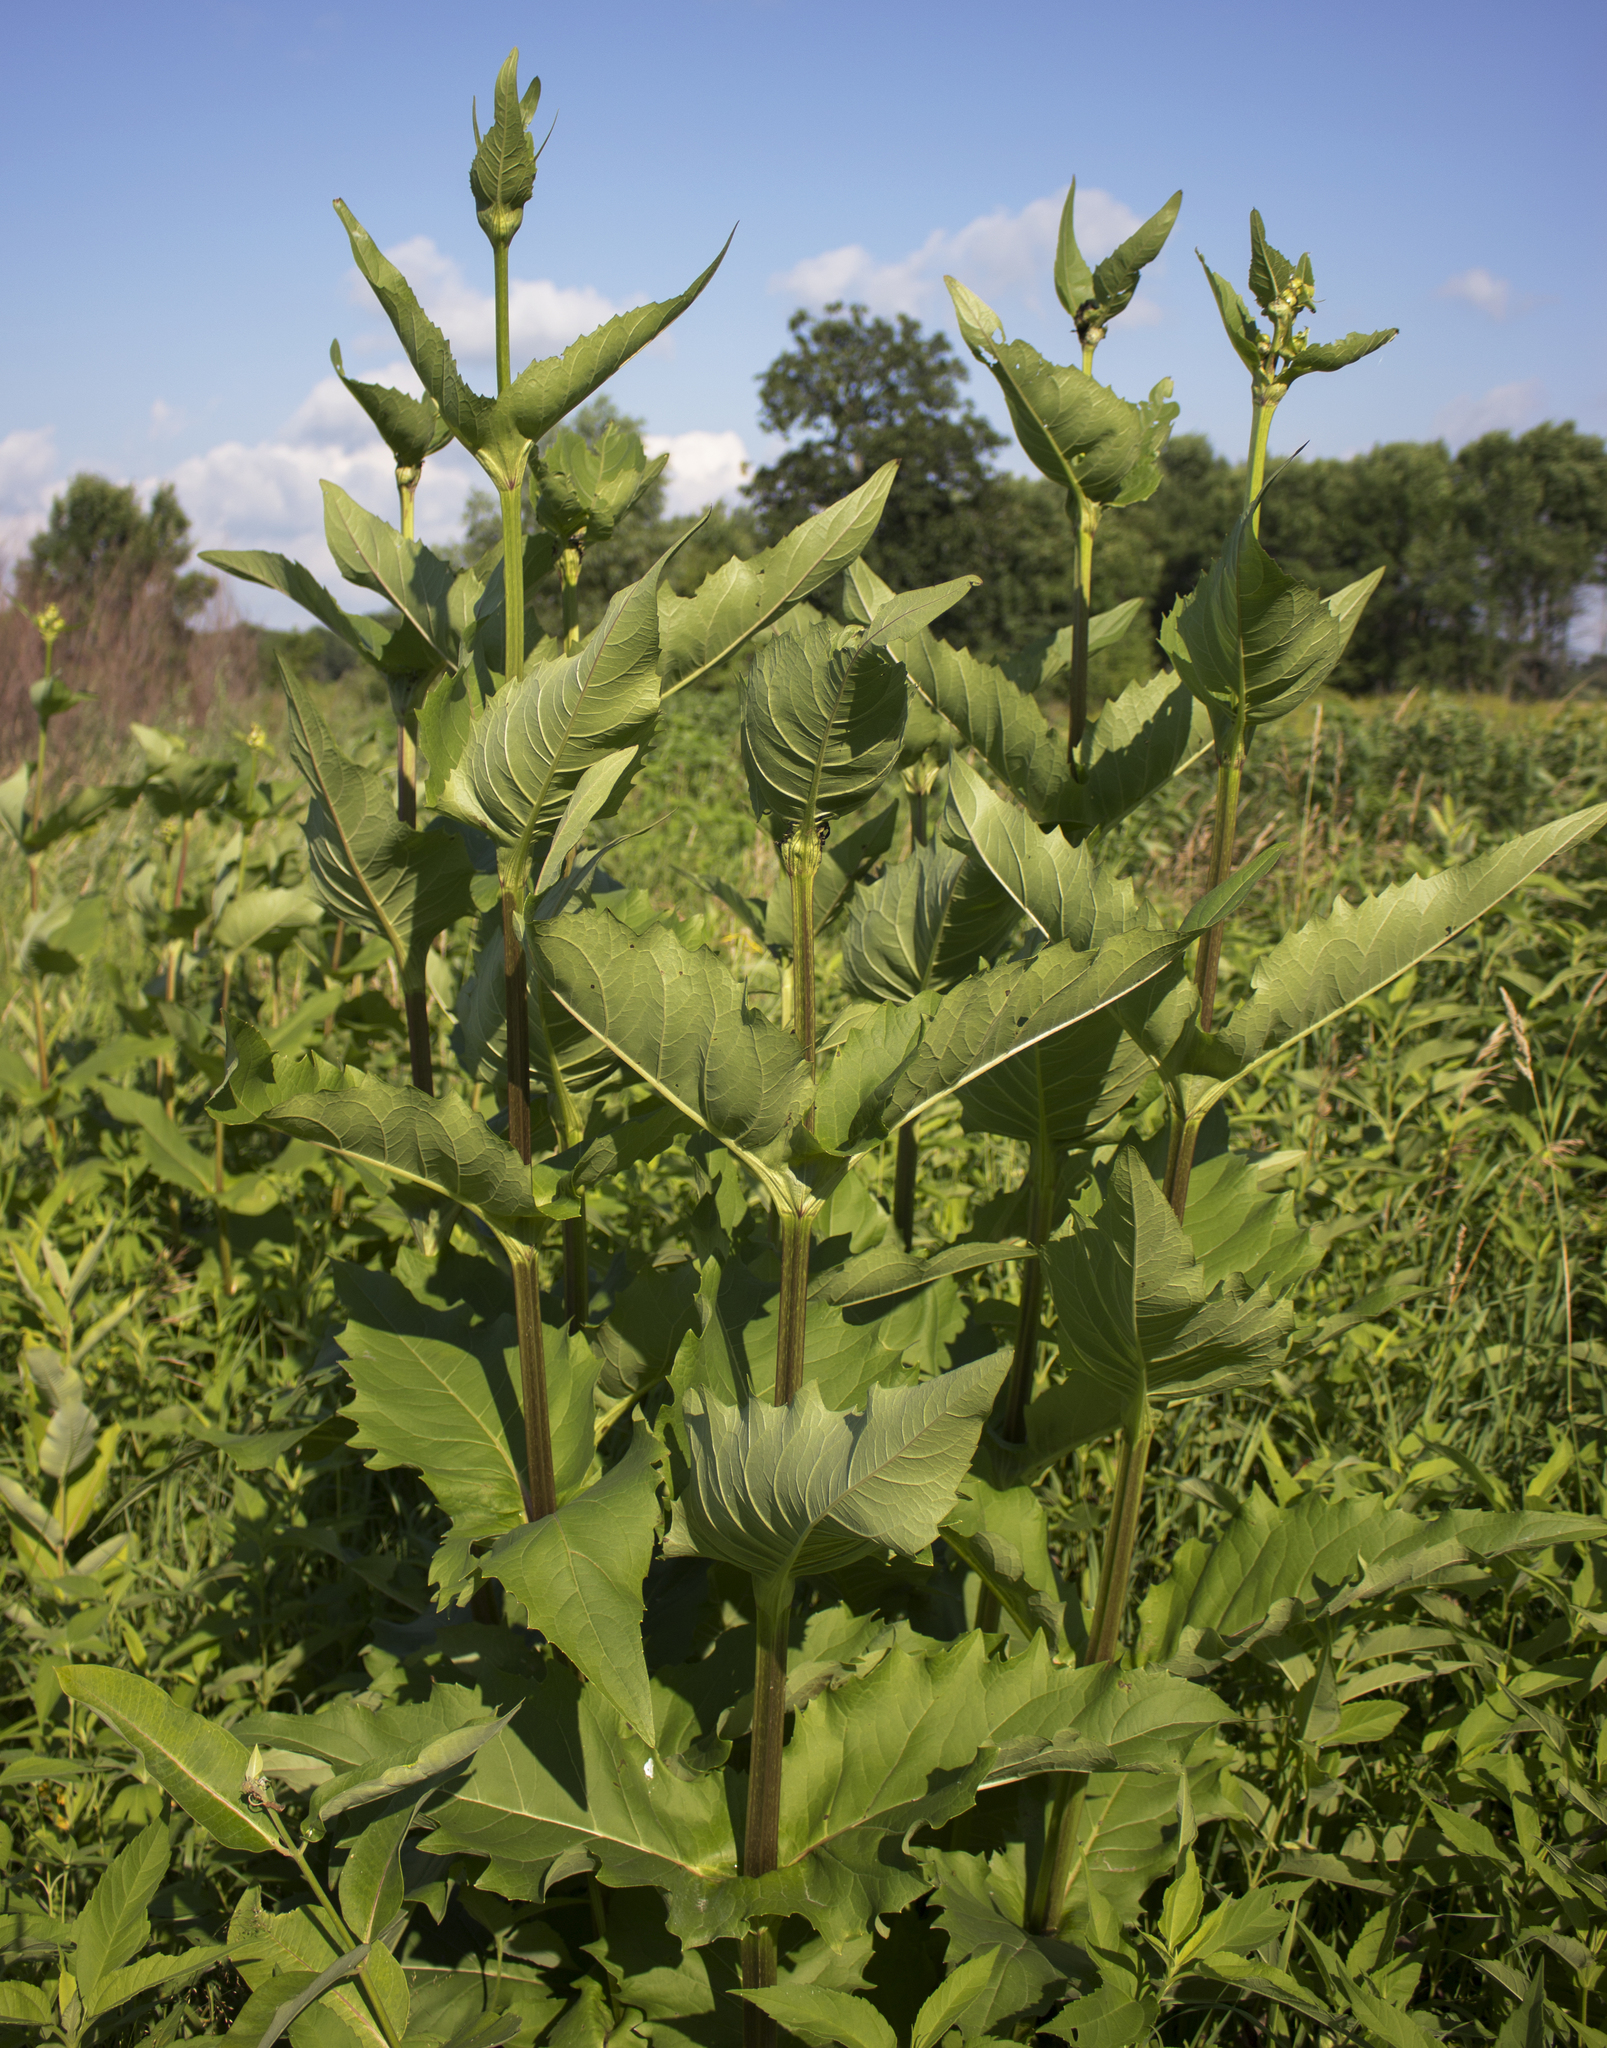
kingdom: Plantae
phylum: Tracheophyta
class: Magnoliopsida
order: Asterales
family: Asteraceae
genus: Silphium
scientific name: Silphium perfoliatum
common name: Cup-plant
